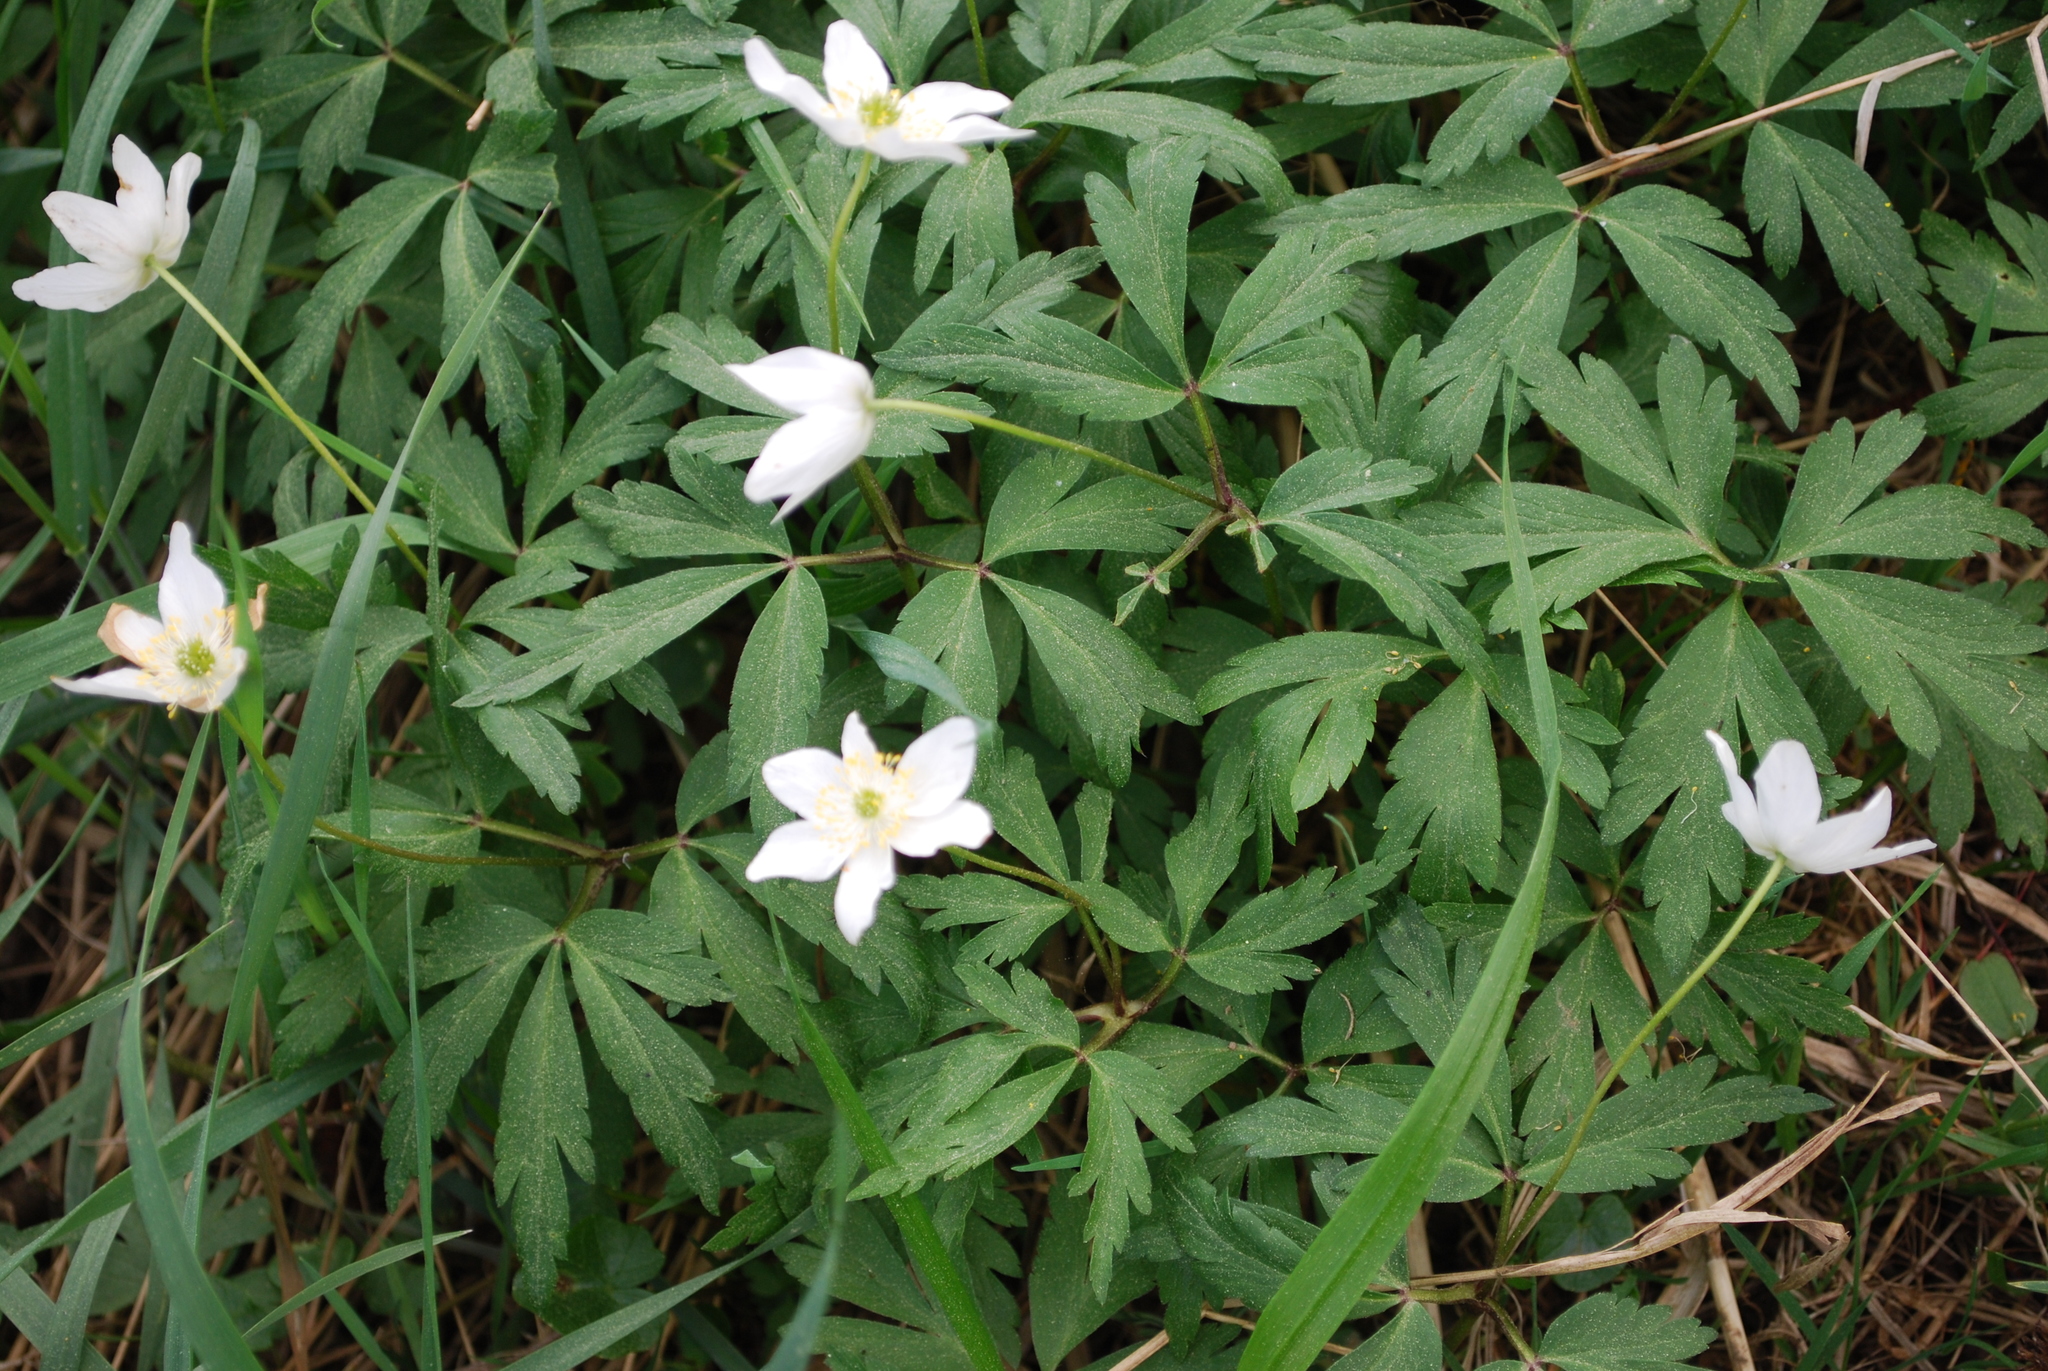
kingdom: Plantae
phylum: Tracheophyta
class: Magnoliopsida
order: Ranunculales
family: Ranunculaceae
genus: Anemone
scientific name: Anemone nemorosa
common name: Wood anemone
